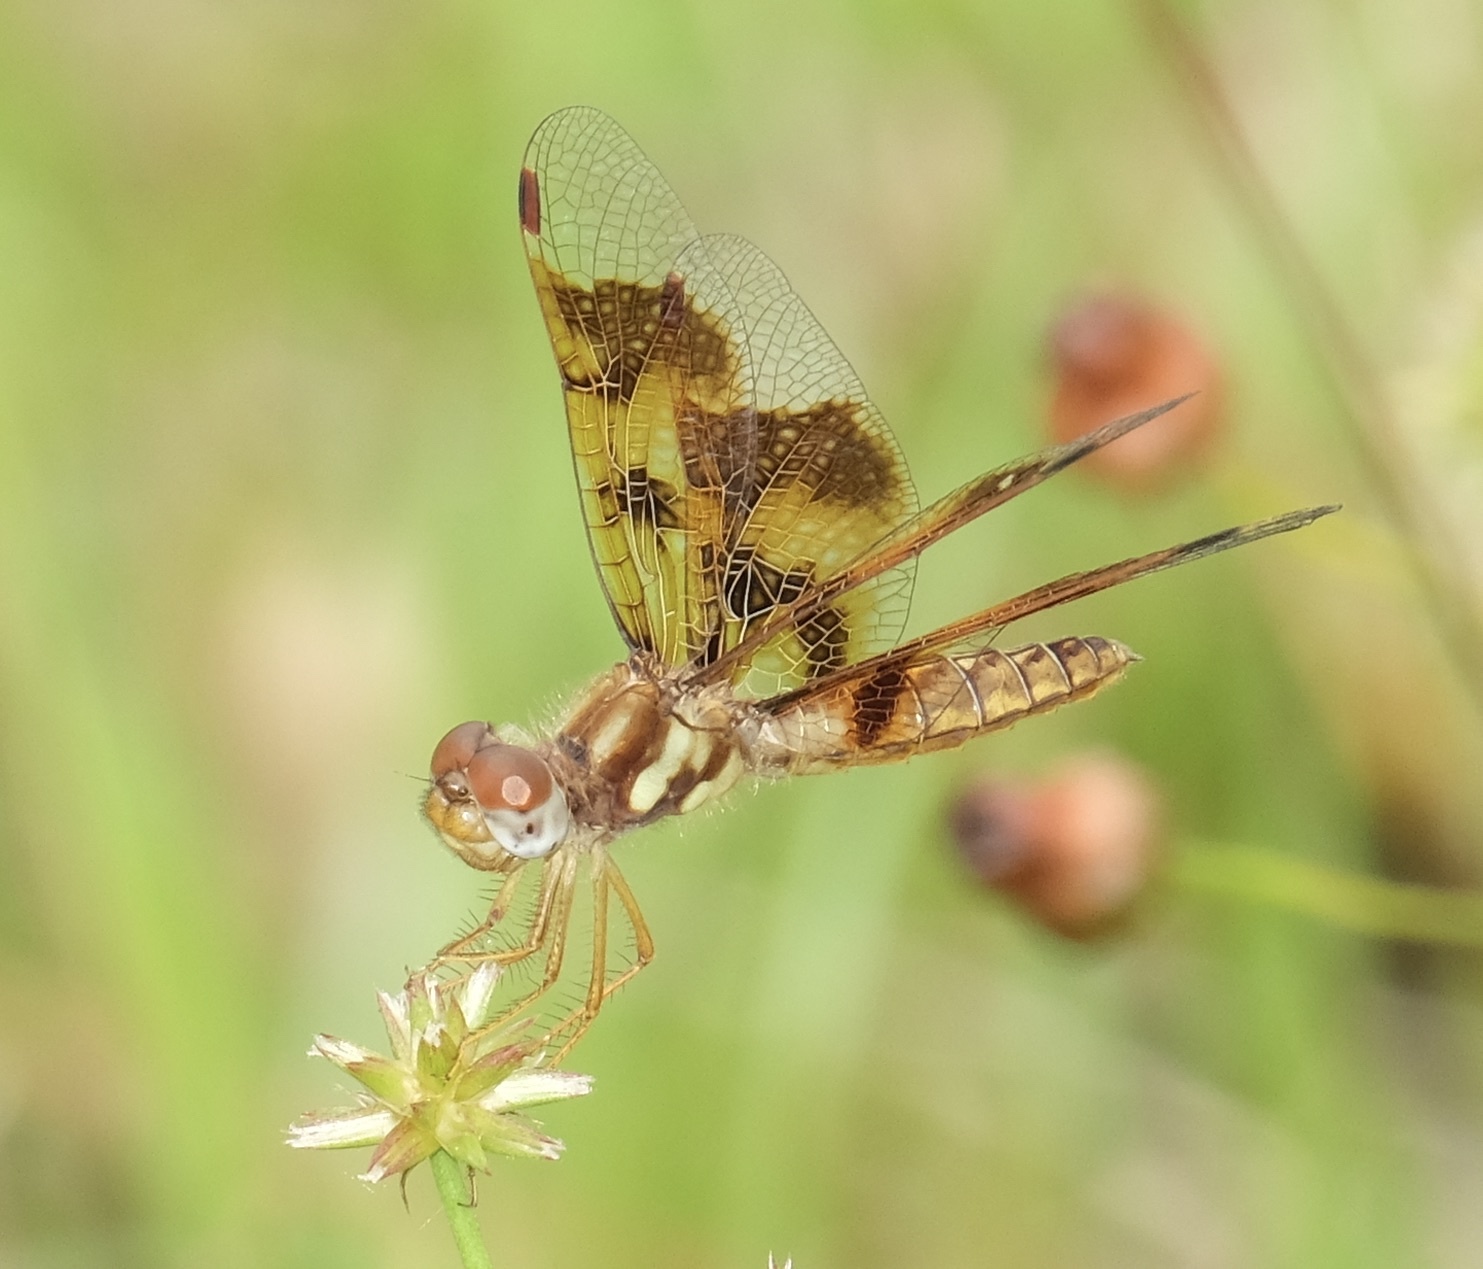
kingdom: Animalia
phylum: Arthropoda
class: Insecta
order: Odonata
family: Libellulidae
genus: Perithemis
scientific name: Perithemis tenera
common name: Eastern amberwing
